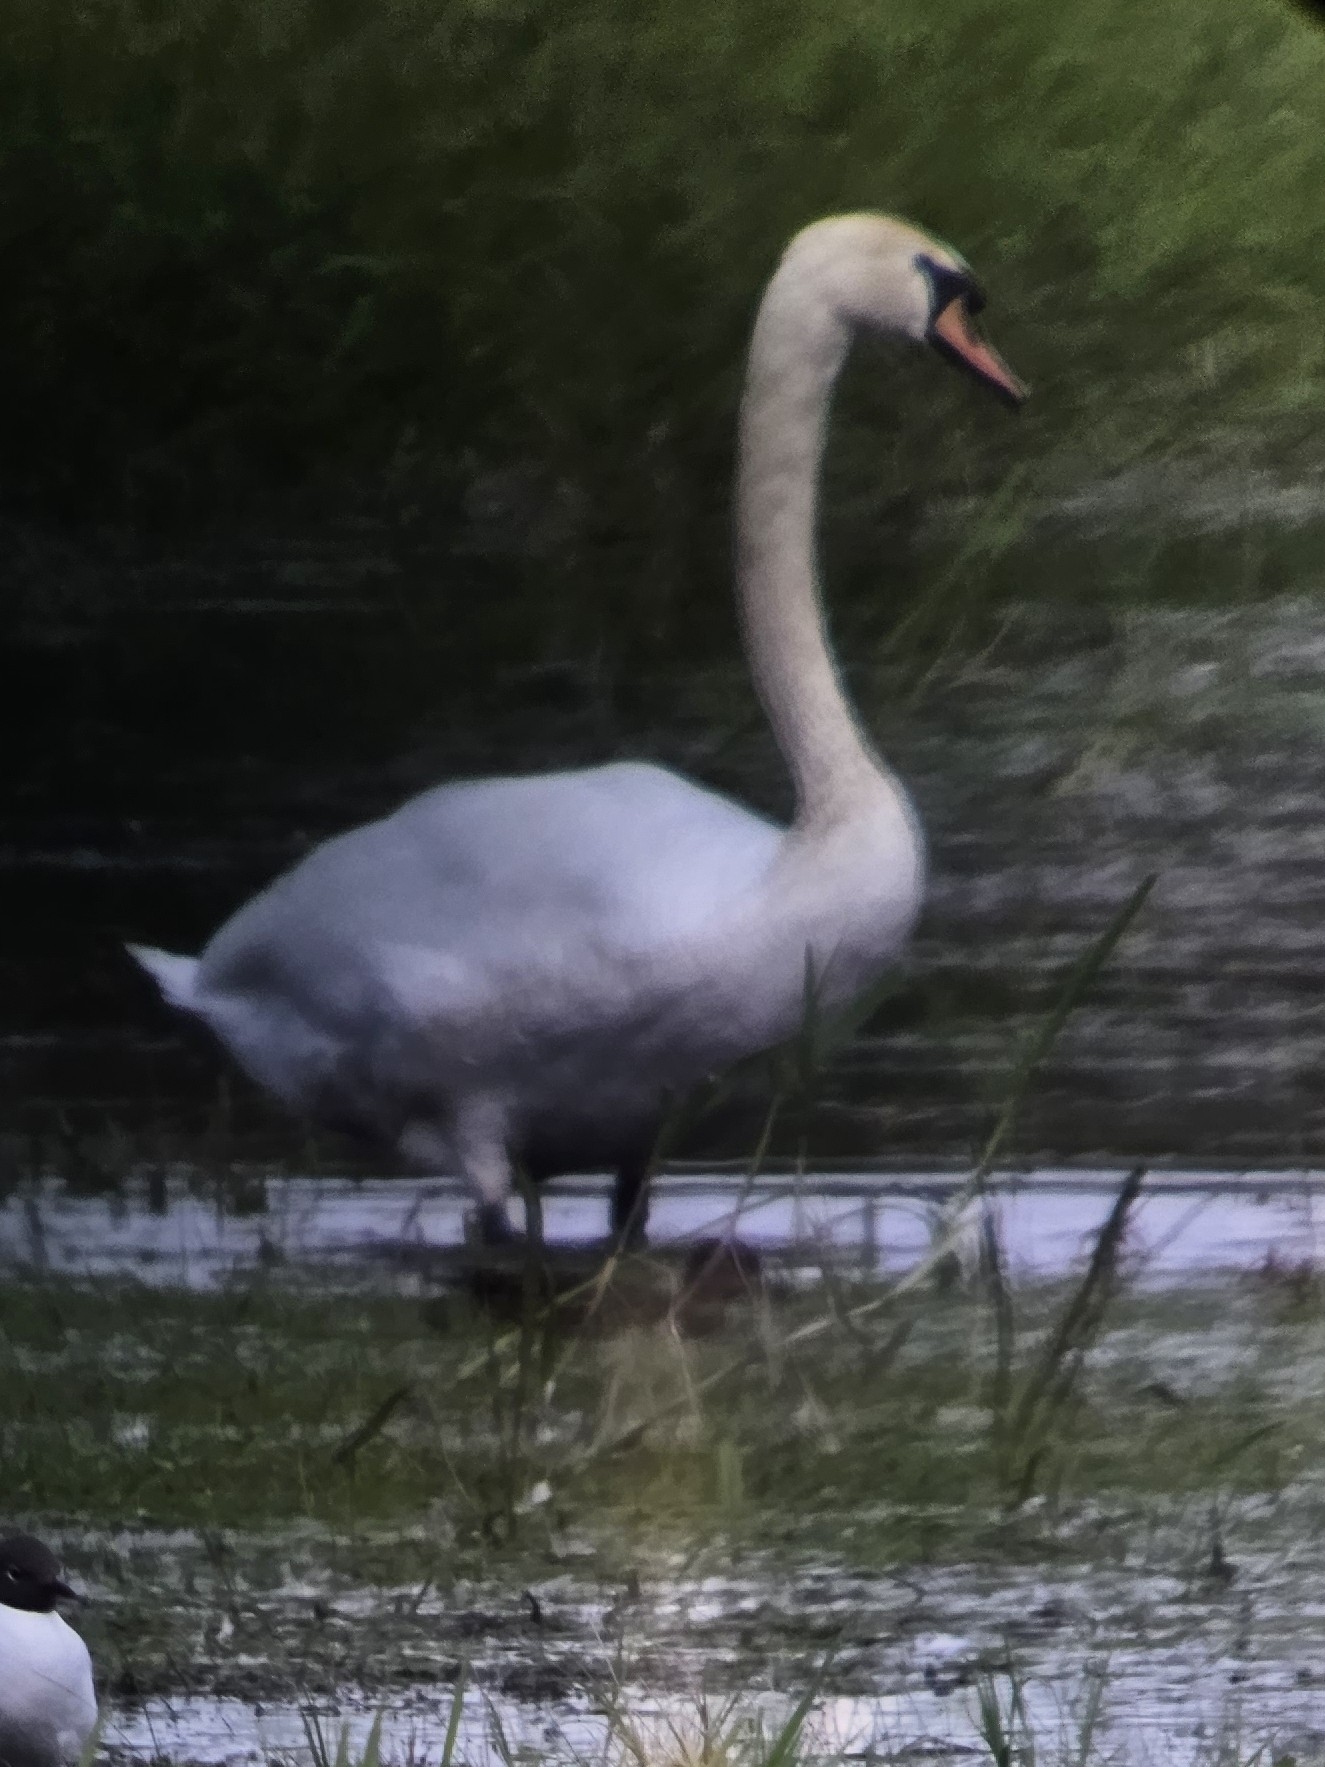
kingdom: Animalia
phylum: Chordata
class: Aves
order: Anseriformes
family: Anatidae
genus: Cygnus
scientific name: Cygnus olor
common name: Mute swan
